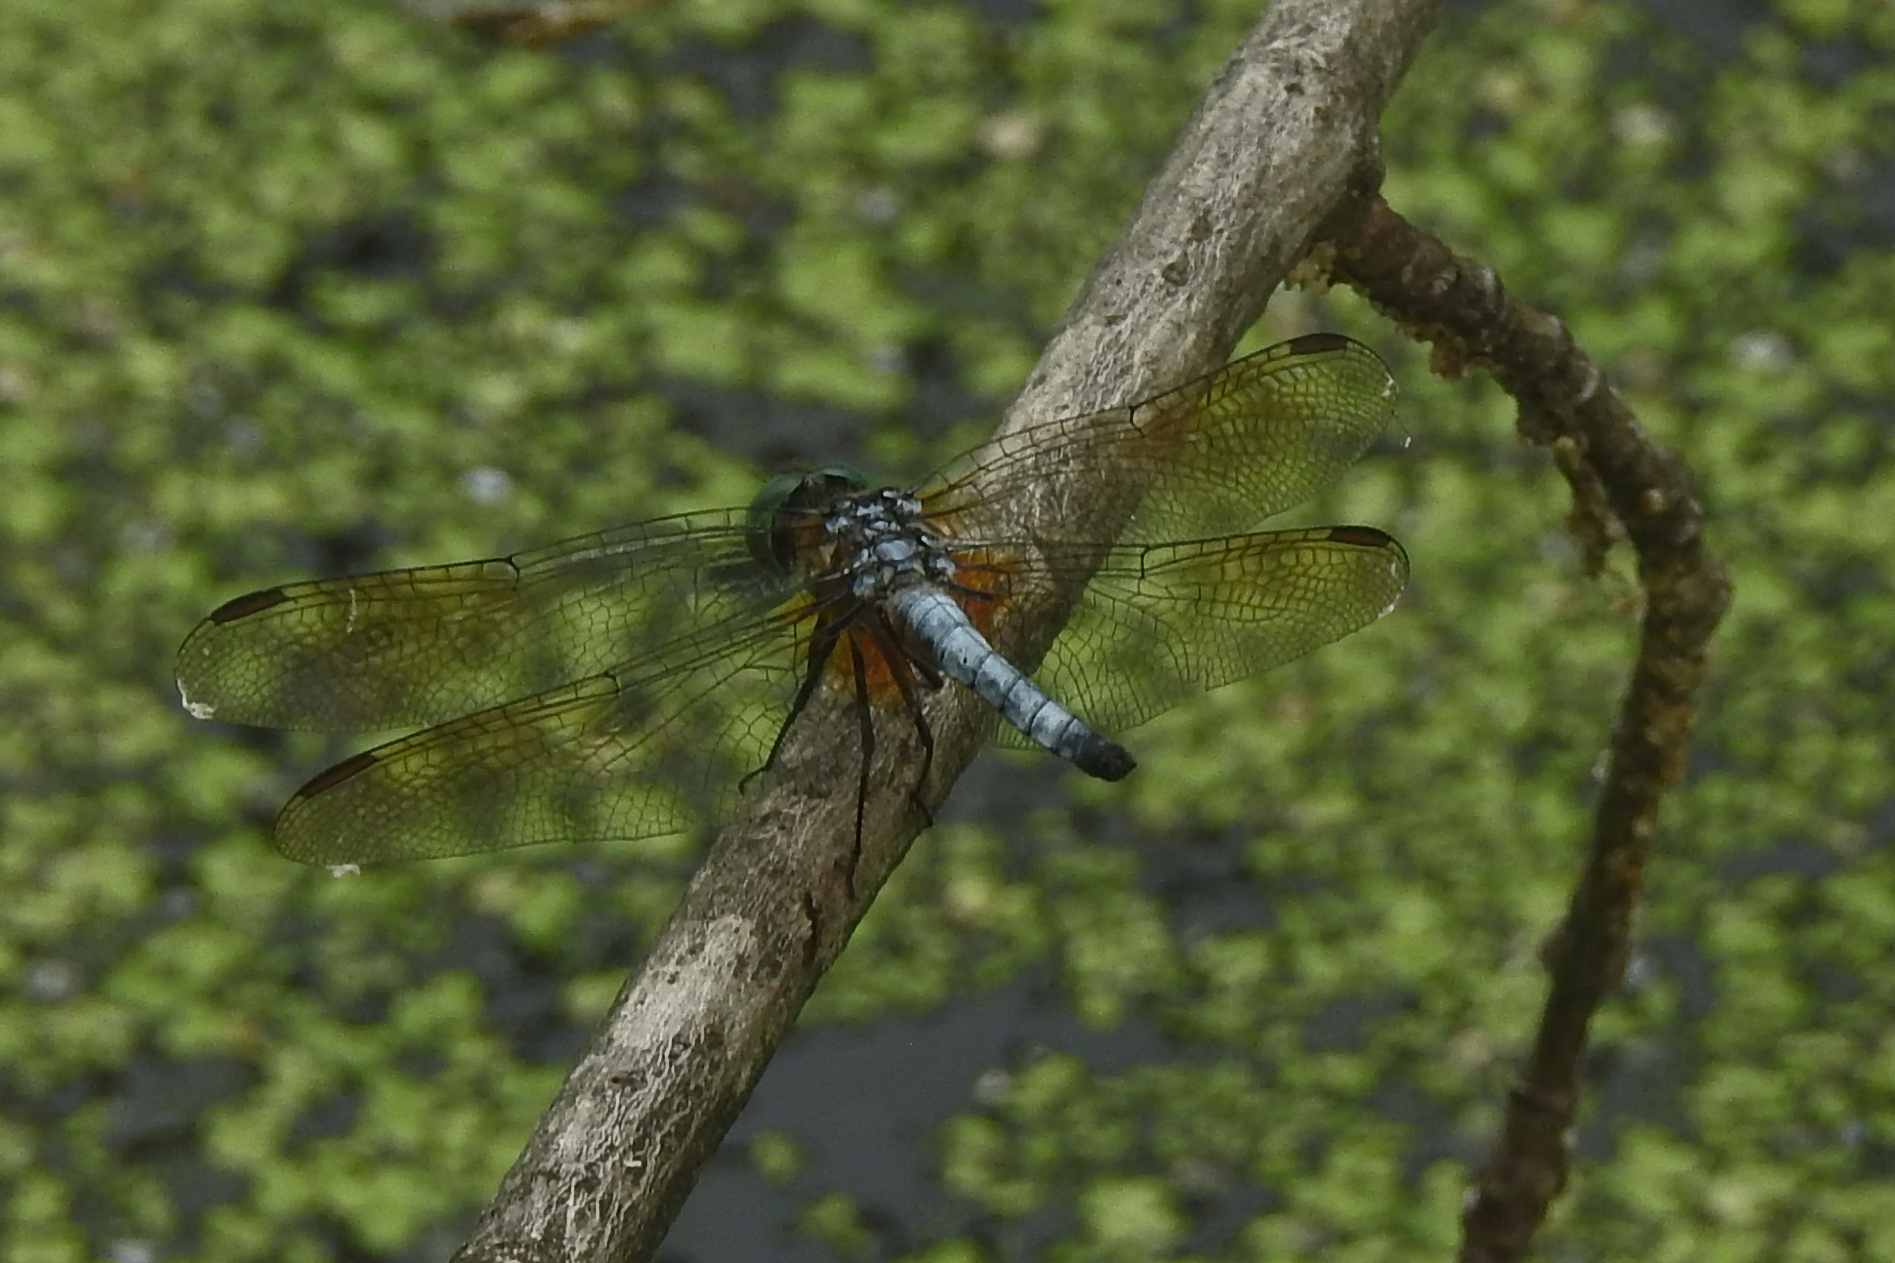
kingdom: Animalia
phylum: Arthropoda
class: Insecta
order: Odonata
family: Libellulidae
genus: Pachydiplax
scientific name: Pachydiplax longipennis
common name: Blue dasher
